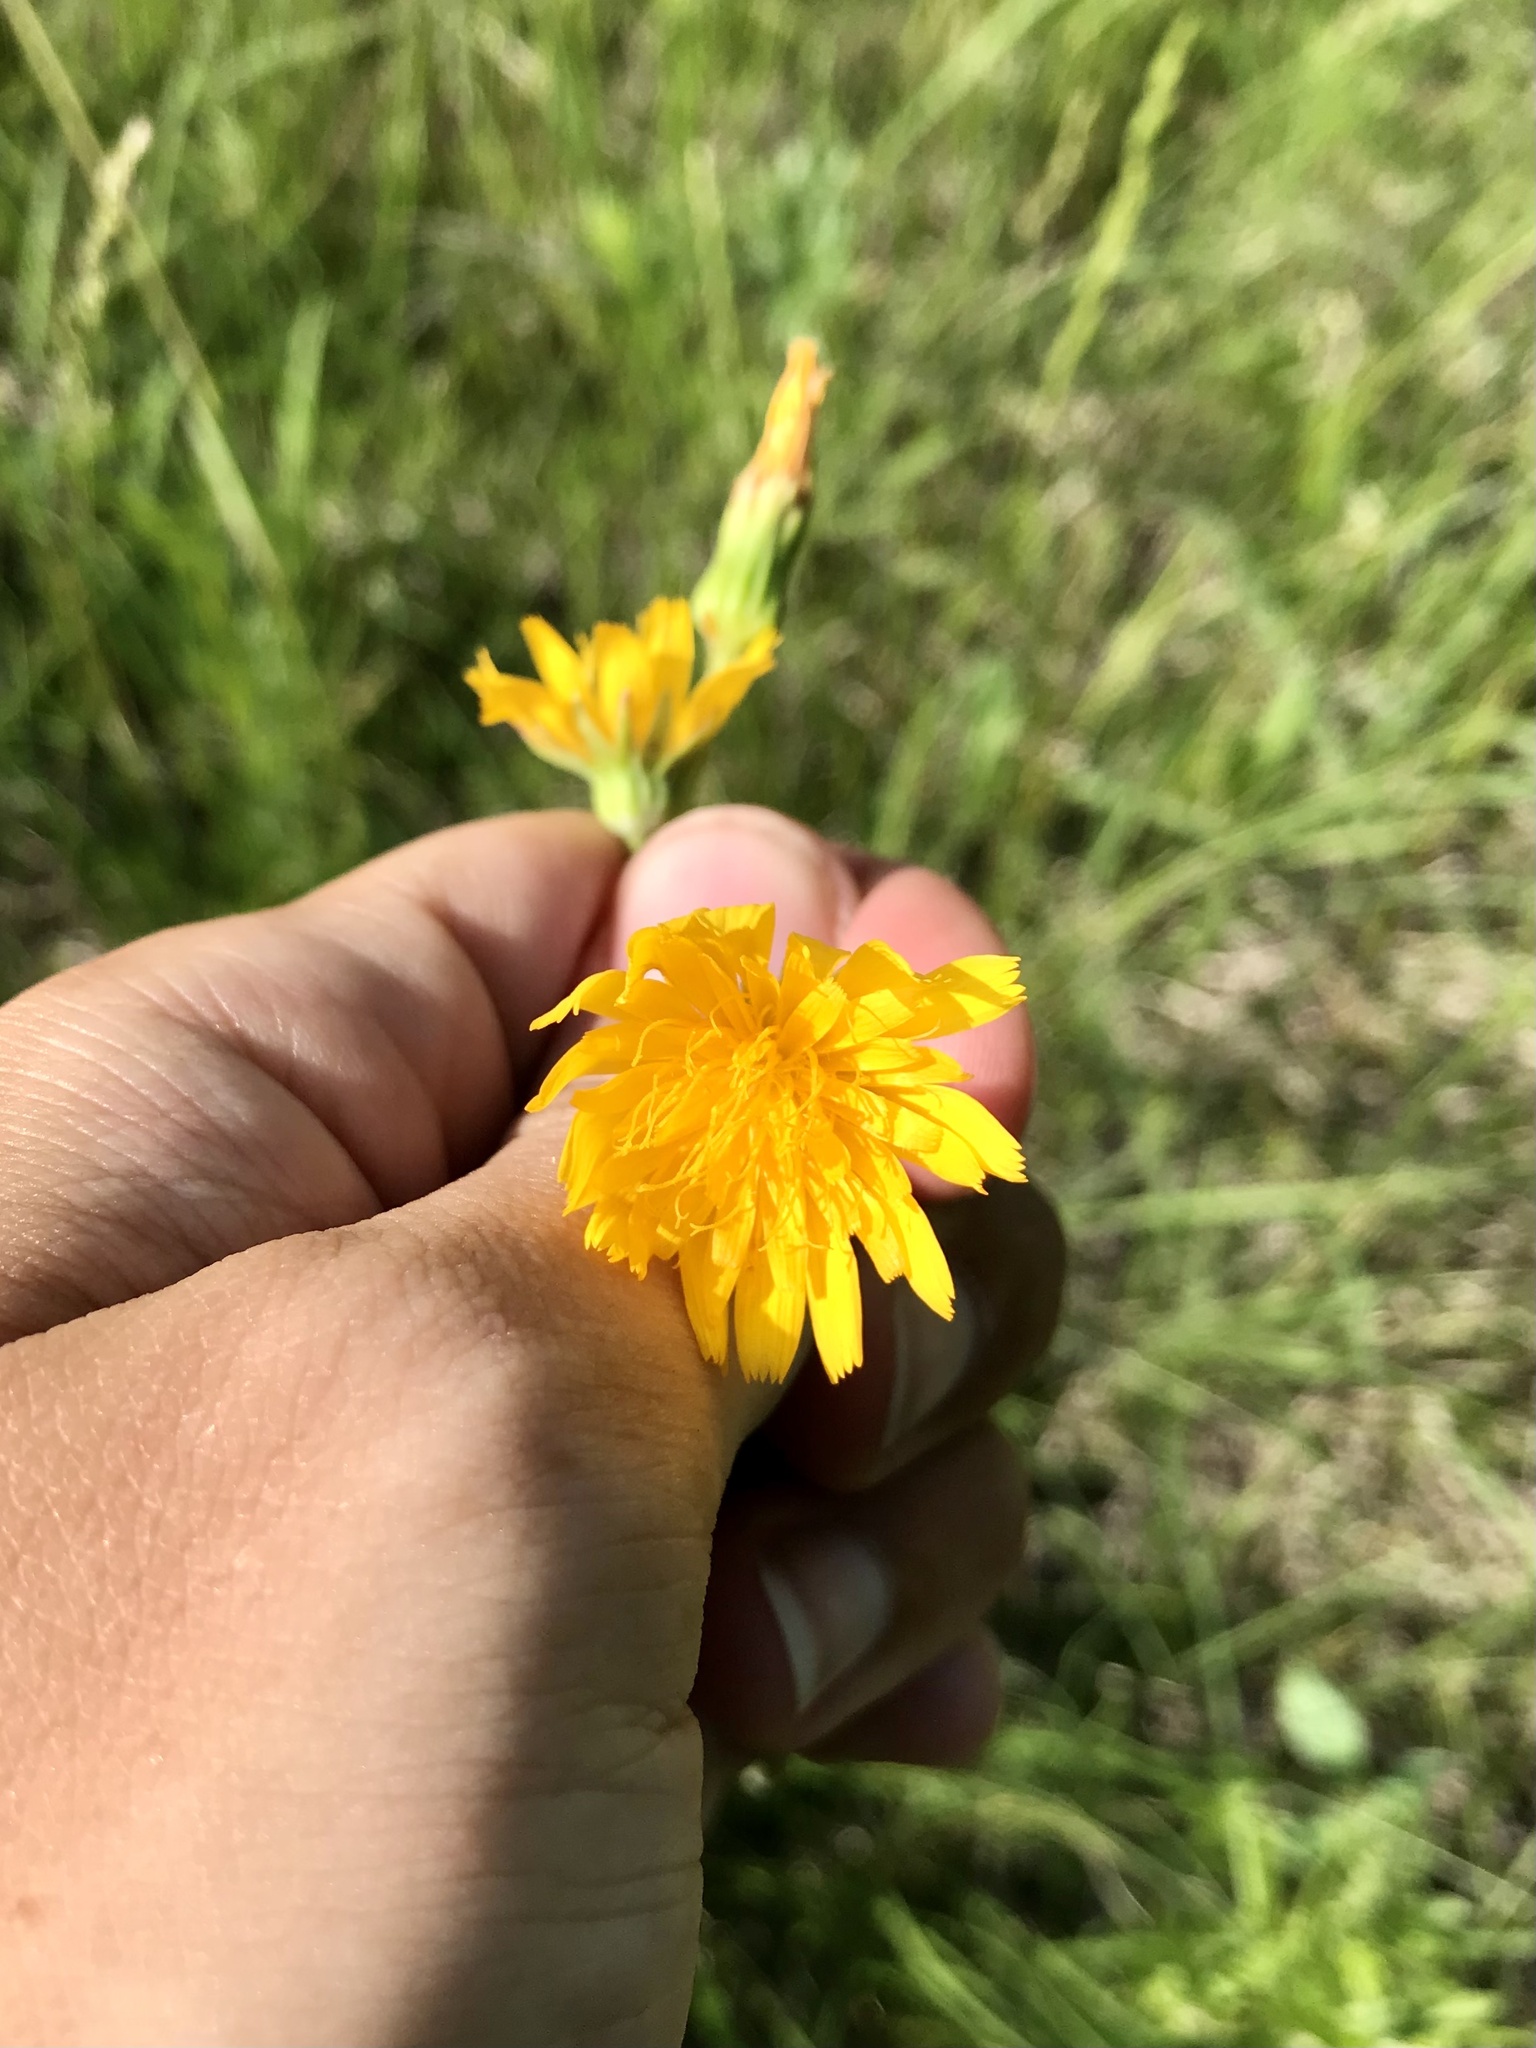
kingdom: Plantae
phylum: Tracheophyta
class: Magnoliopsida
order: Asterales
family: Asteraceae
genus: Krigia
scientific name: Krigia biflora
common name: Orange dwarf-dandelion
